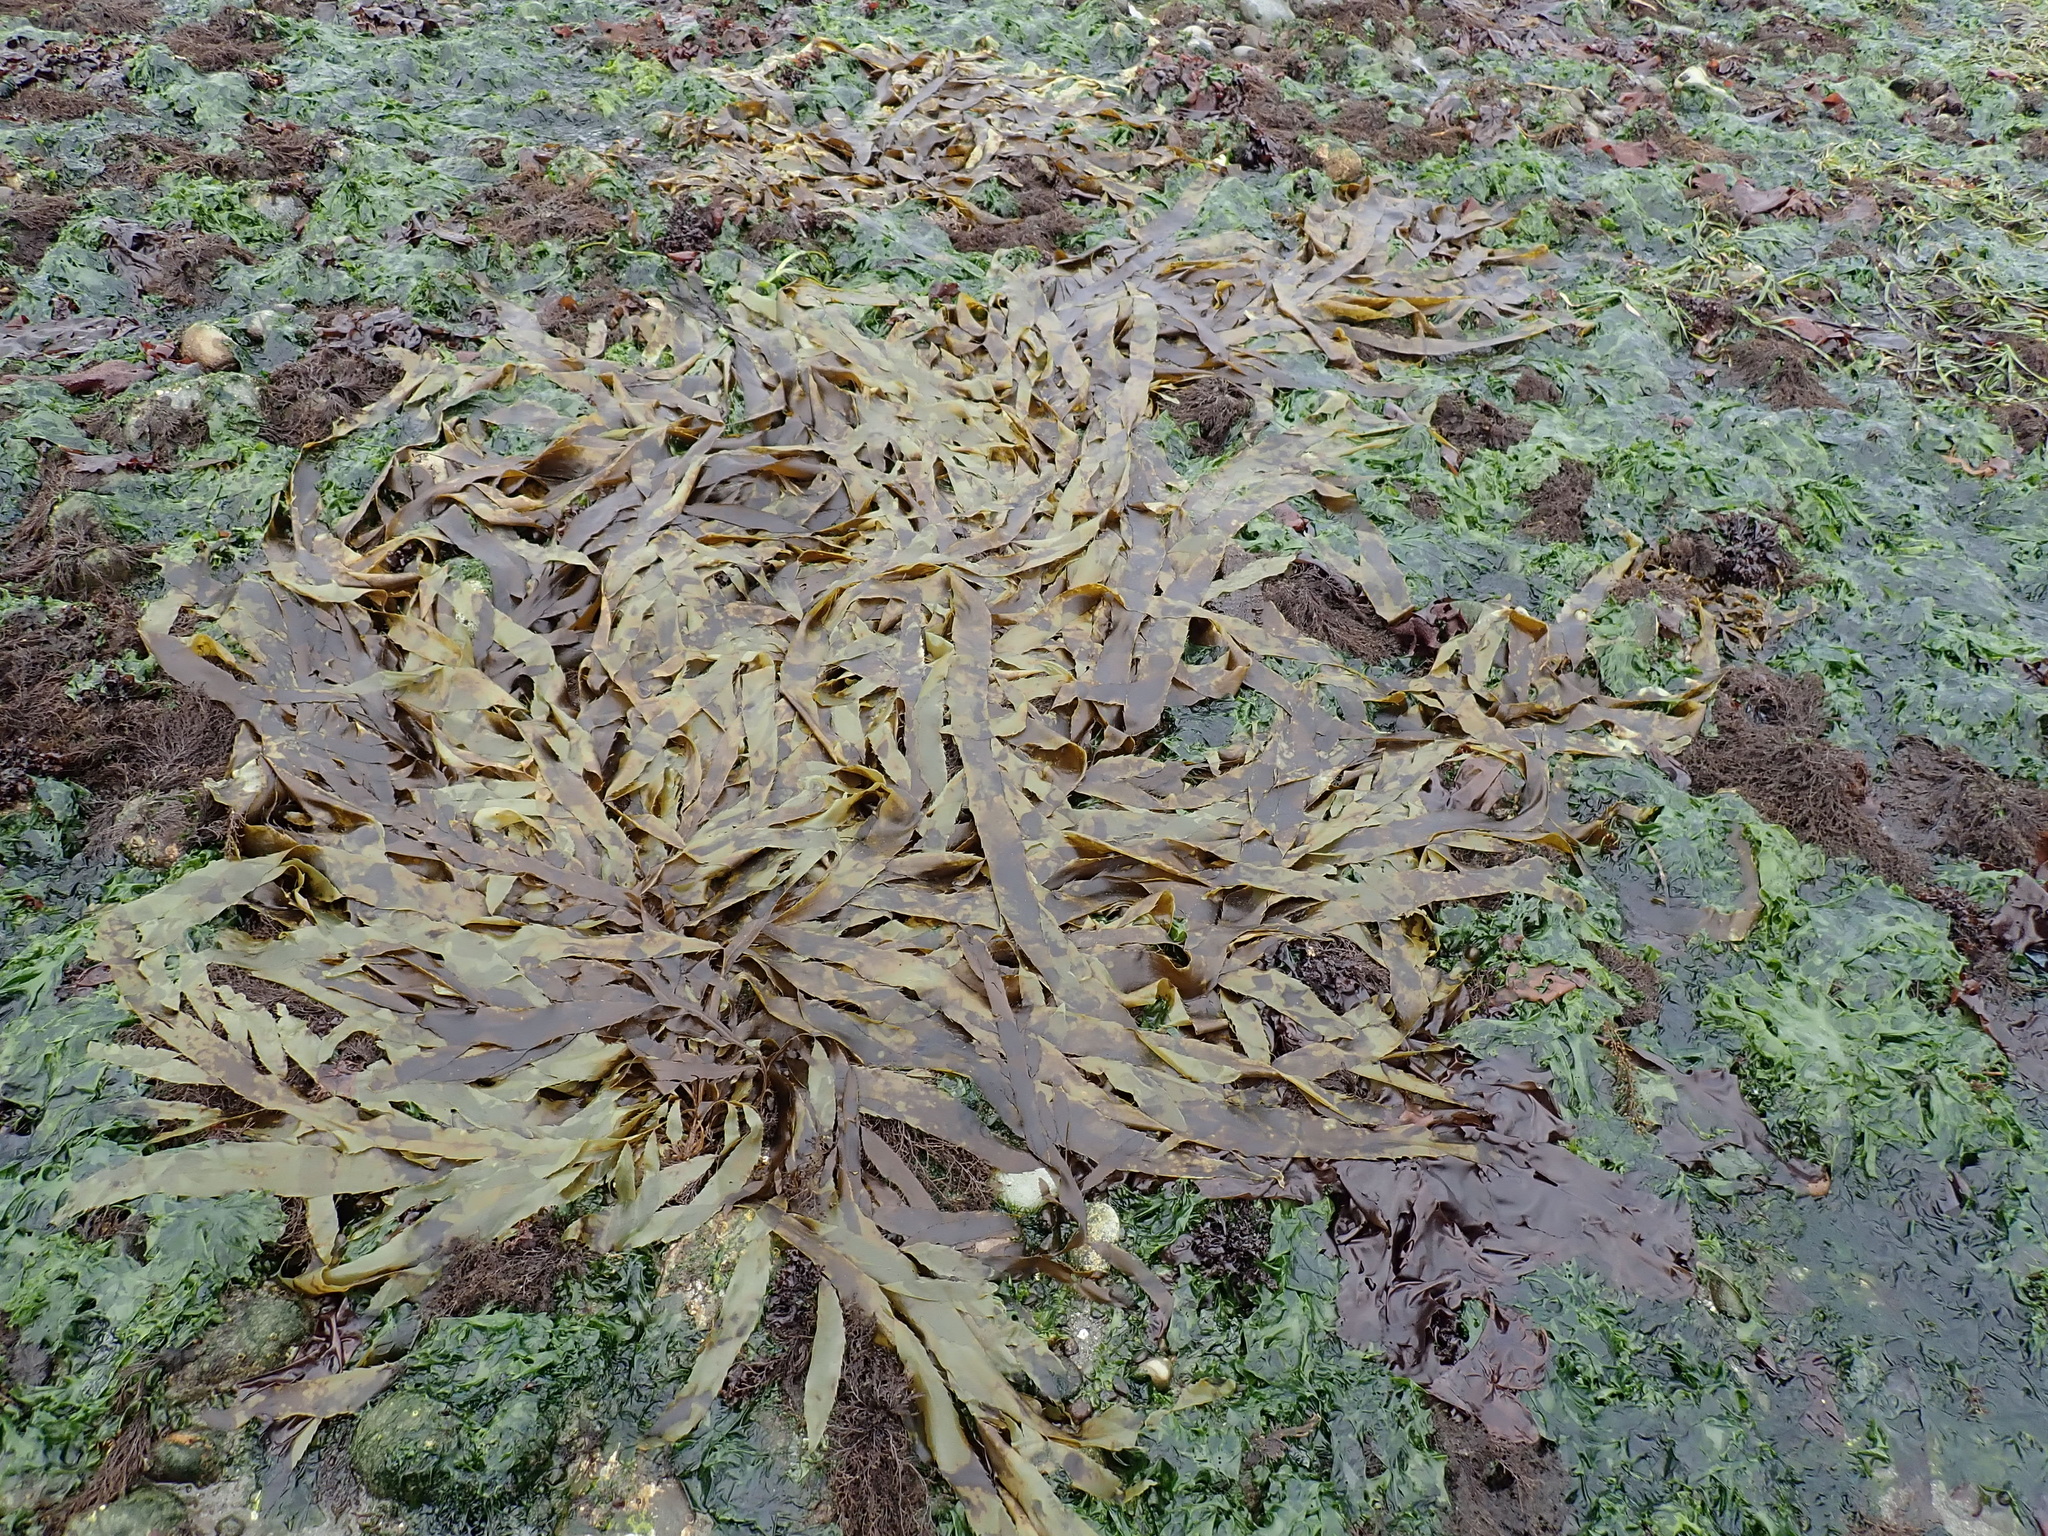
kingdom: Chromista
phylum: Ochrophyta
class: Phaeophyceae
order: Desmarestiales
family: Desmarestiaceae
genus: Desmarestia
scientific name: Desmarestia ligulata
